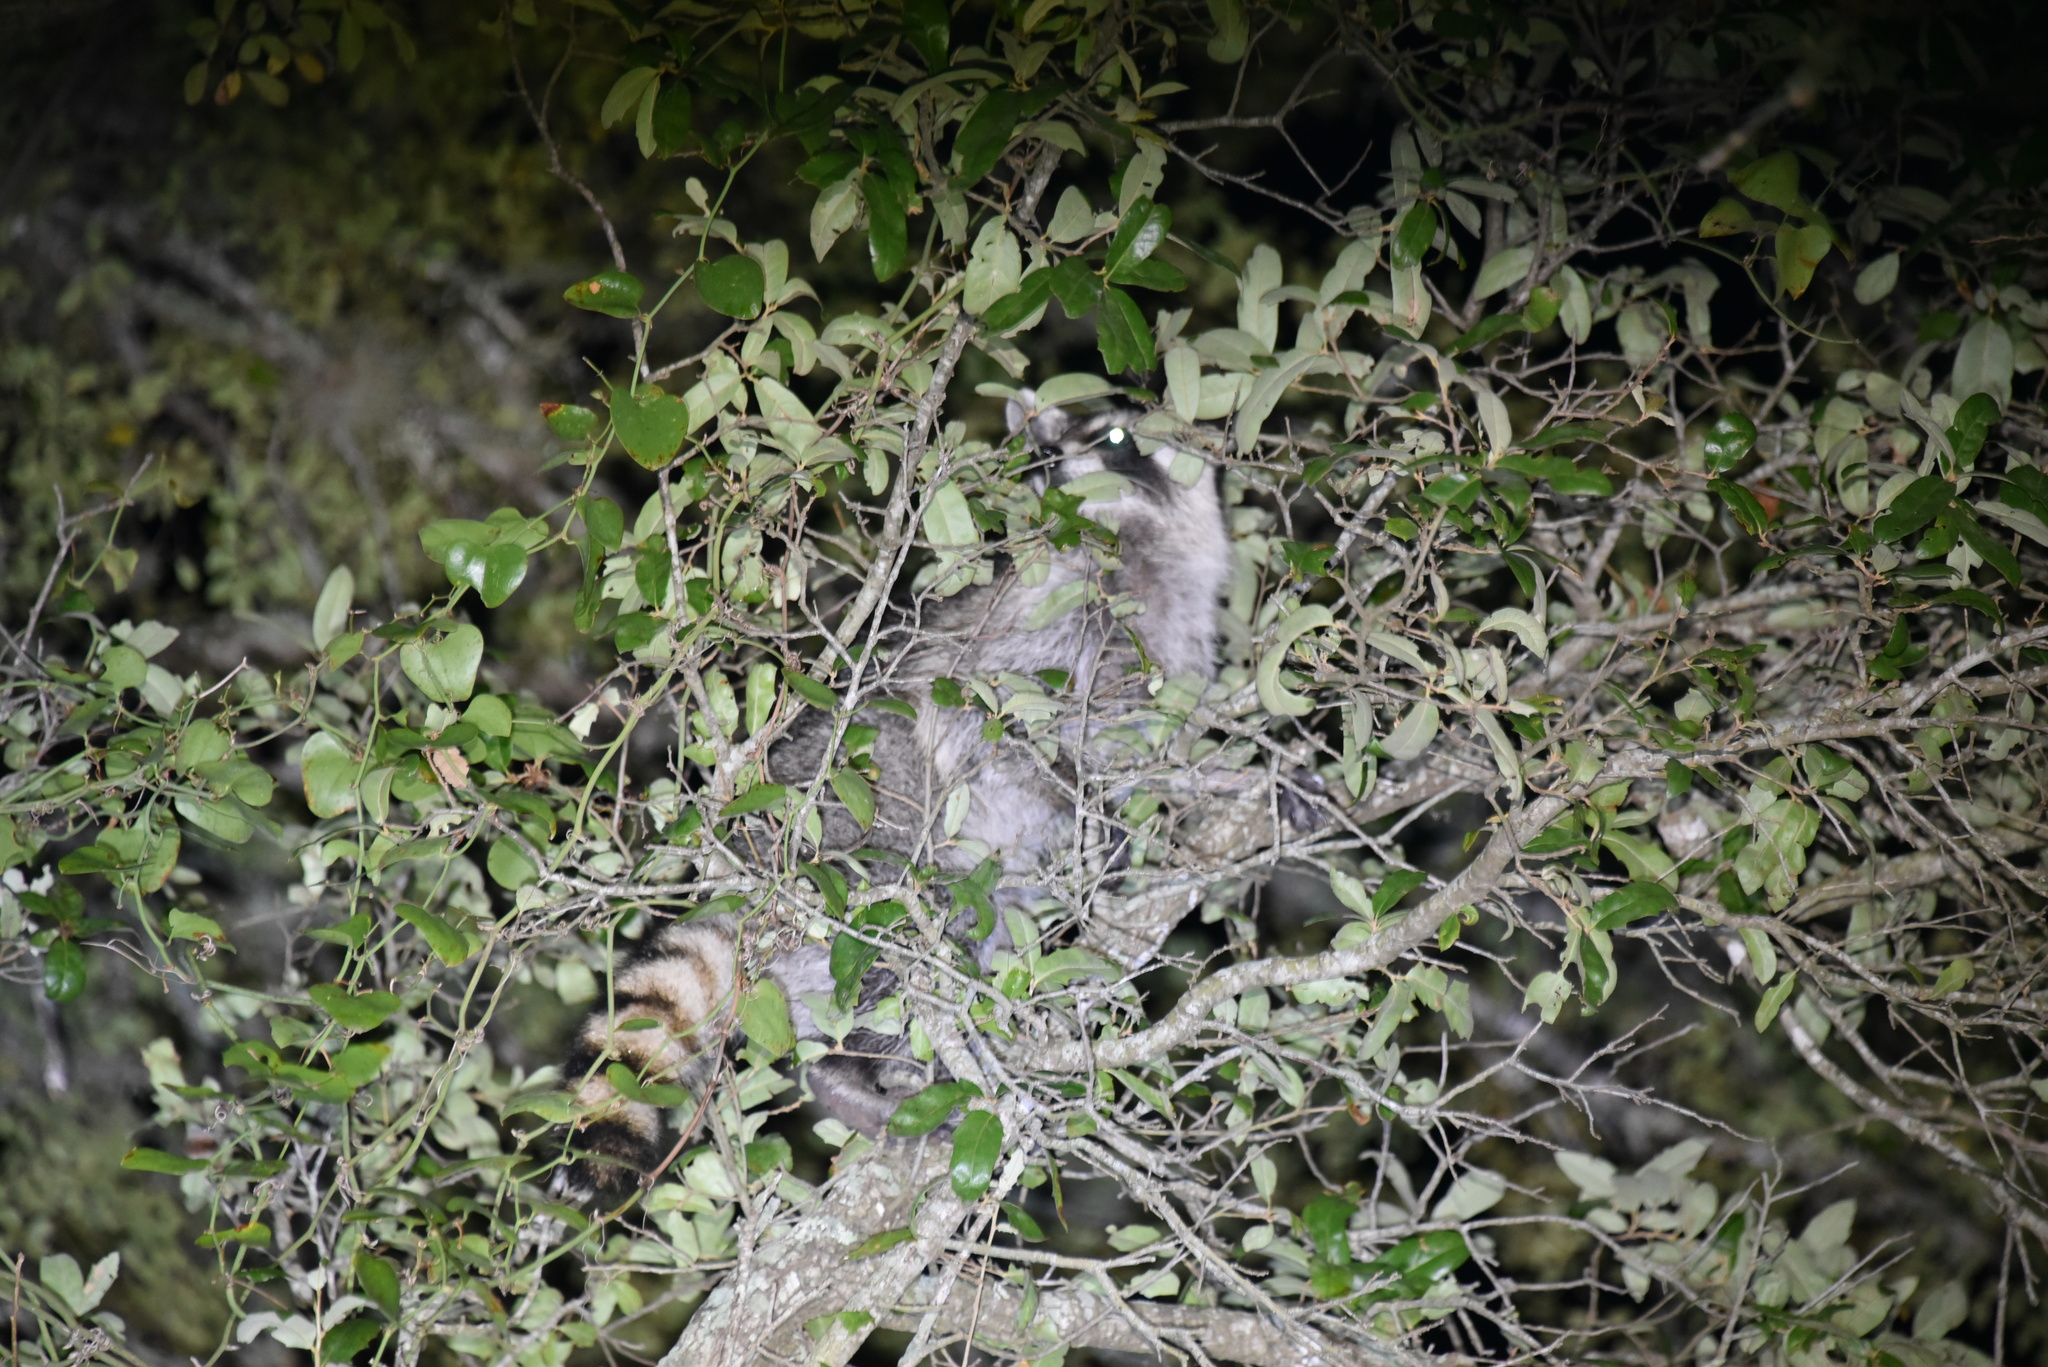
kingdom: Animalia
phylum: Chordata
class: Mammalia
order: Carnivora
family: Procyonidae
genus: Procyon
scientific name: Procyon lotor
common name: Raccoon
